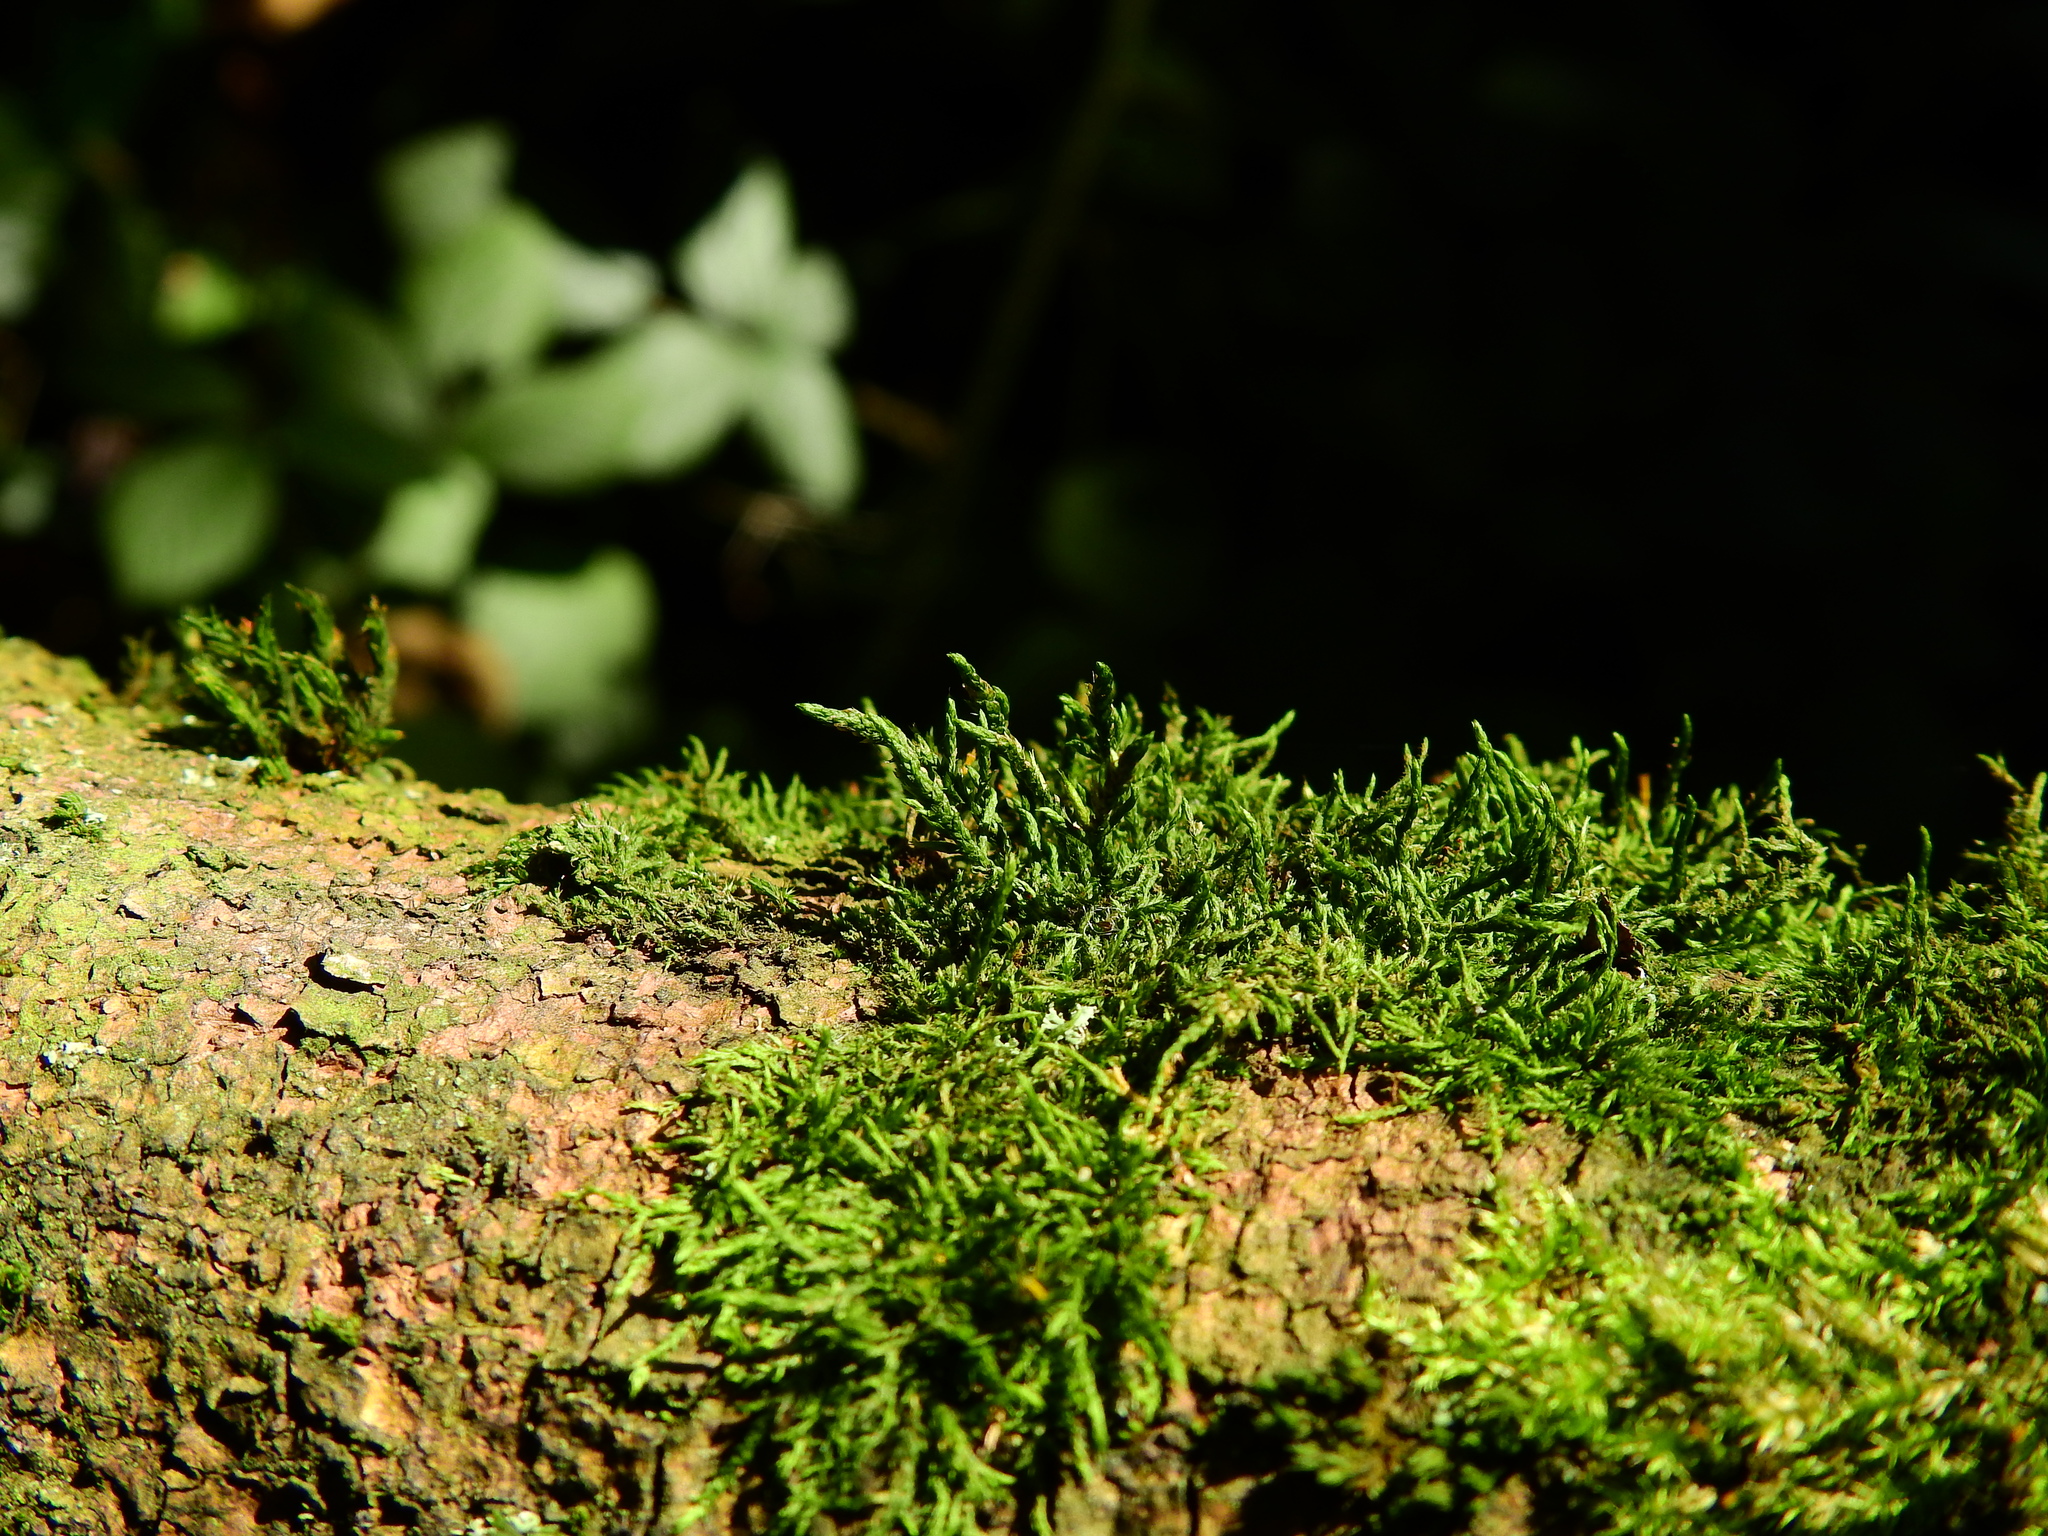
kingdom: Plantae
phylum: Bryophyta
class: Bryopsida
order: Hypnales
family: Cryphaeaceae
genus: Cryphaea
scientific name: Cryphaea heteromalla
